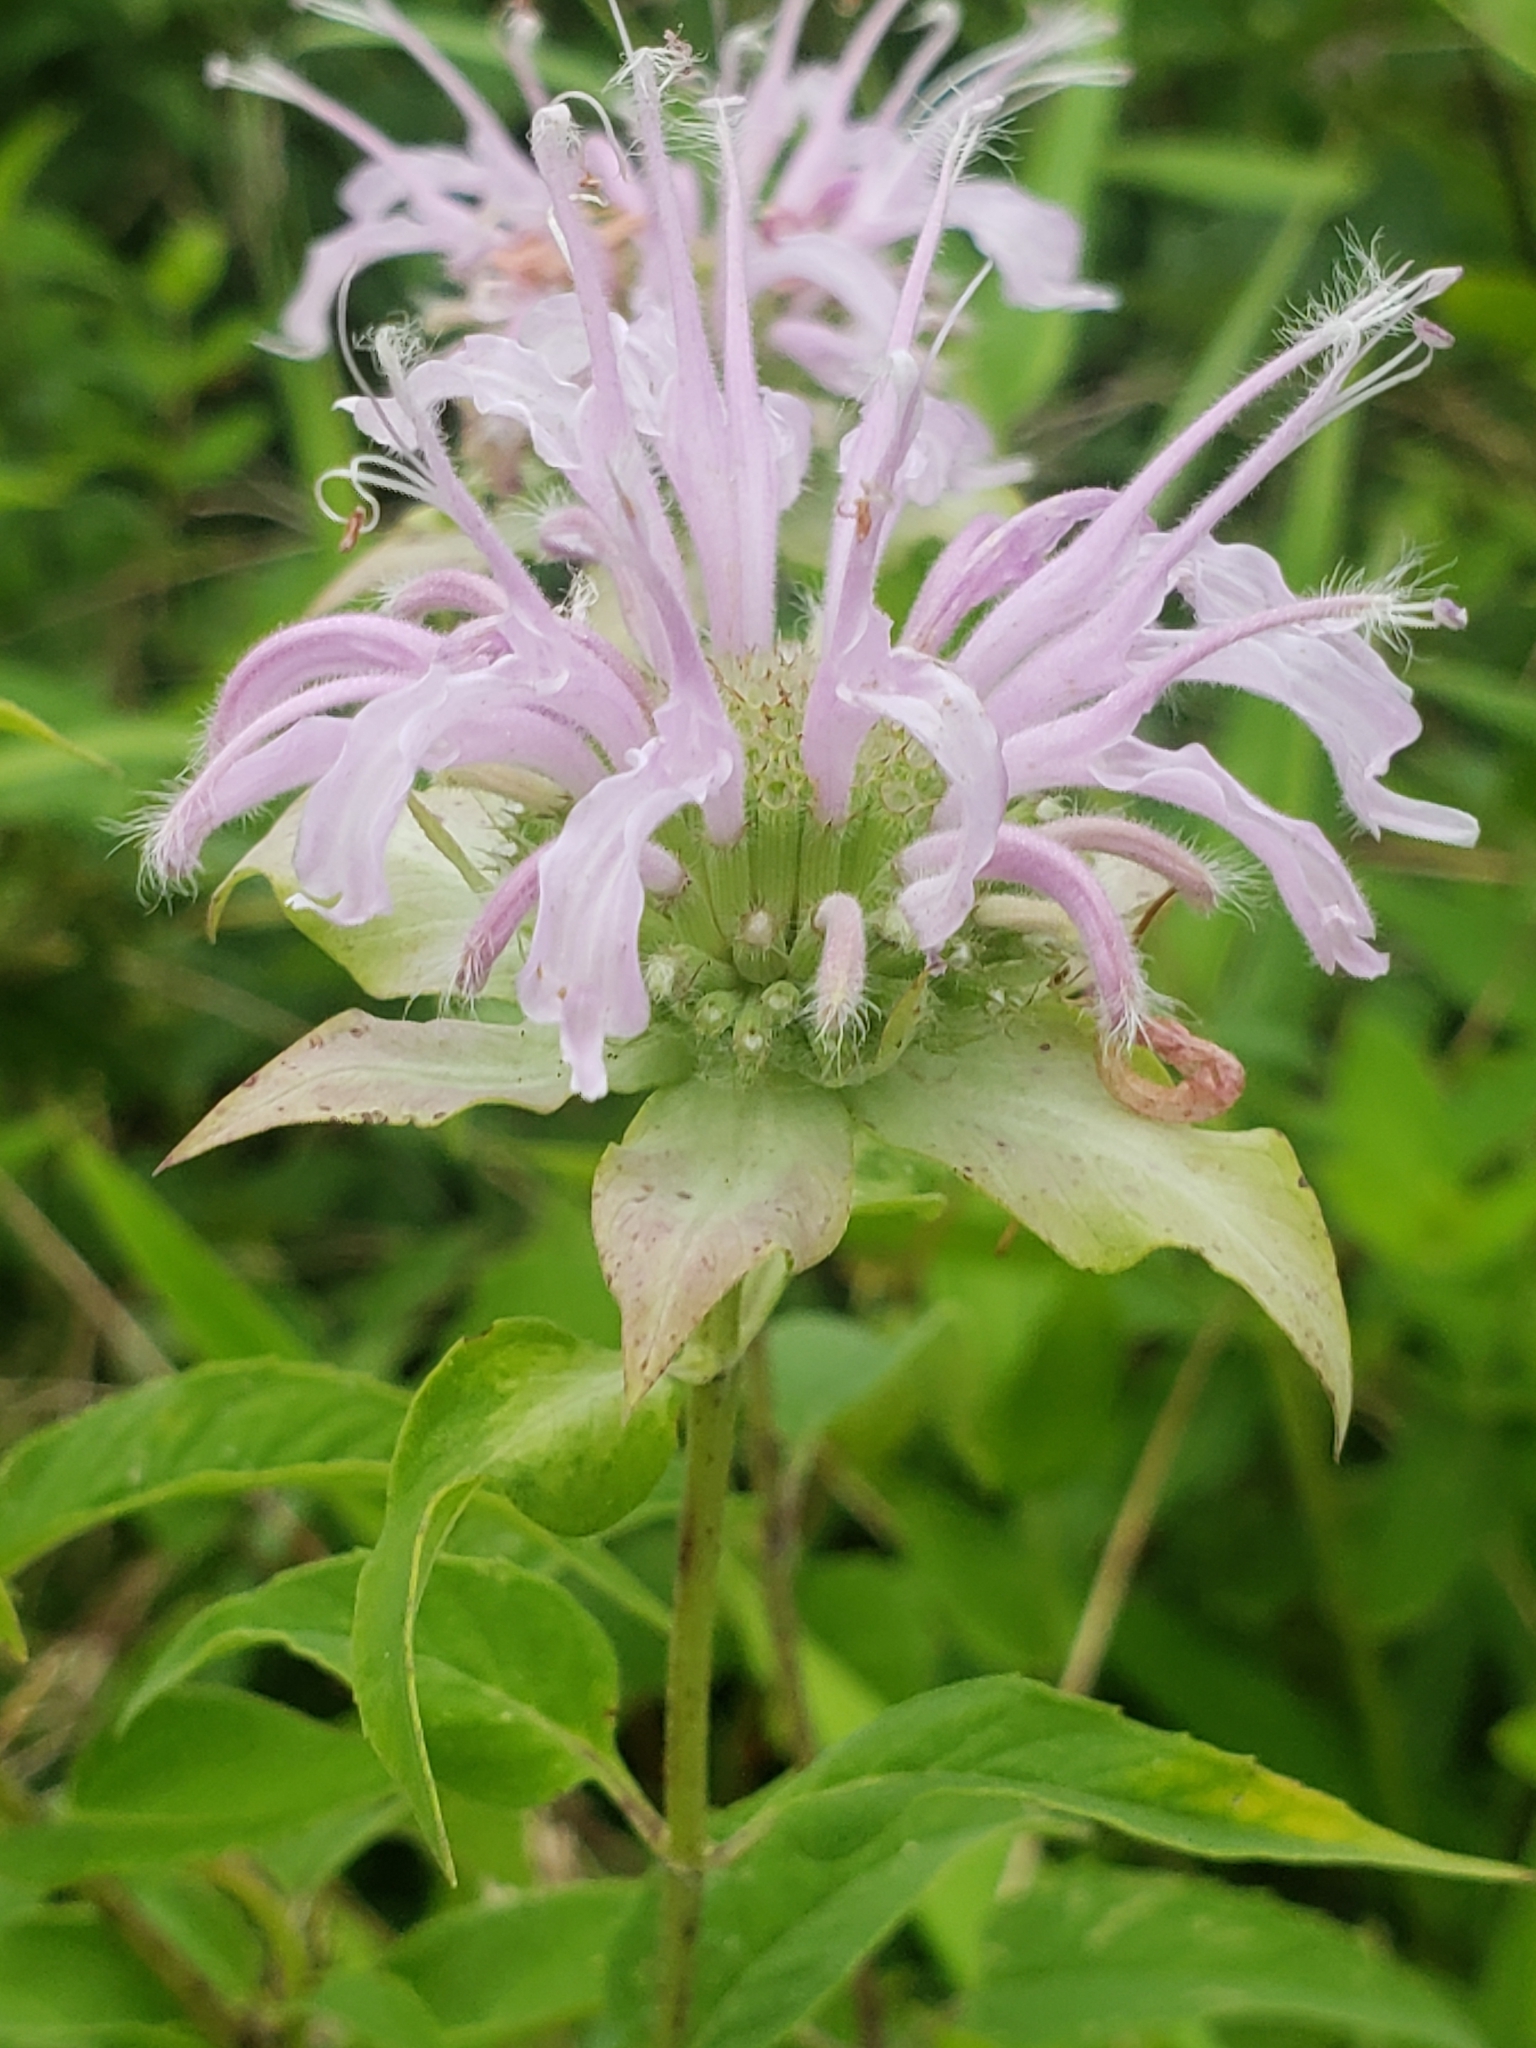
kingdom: Plantae
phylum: Tracheophyta
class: Magnoliopsida
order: Lamiales
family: Lamiaceae
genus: Monarda
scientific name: Monarda fistulosa
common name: Purple beebalm
